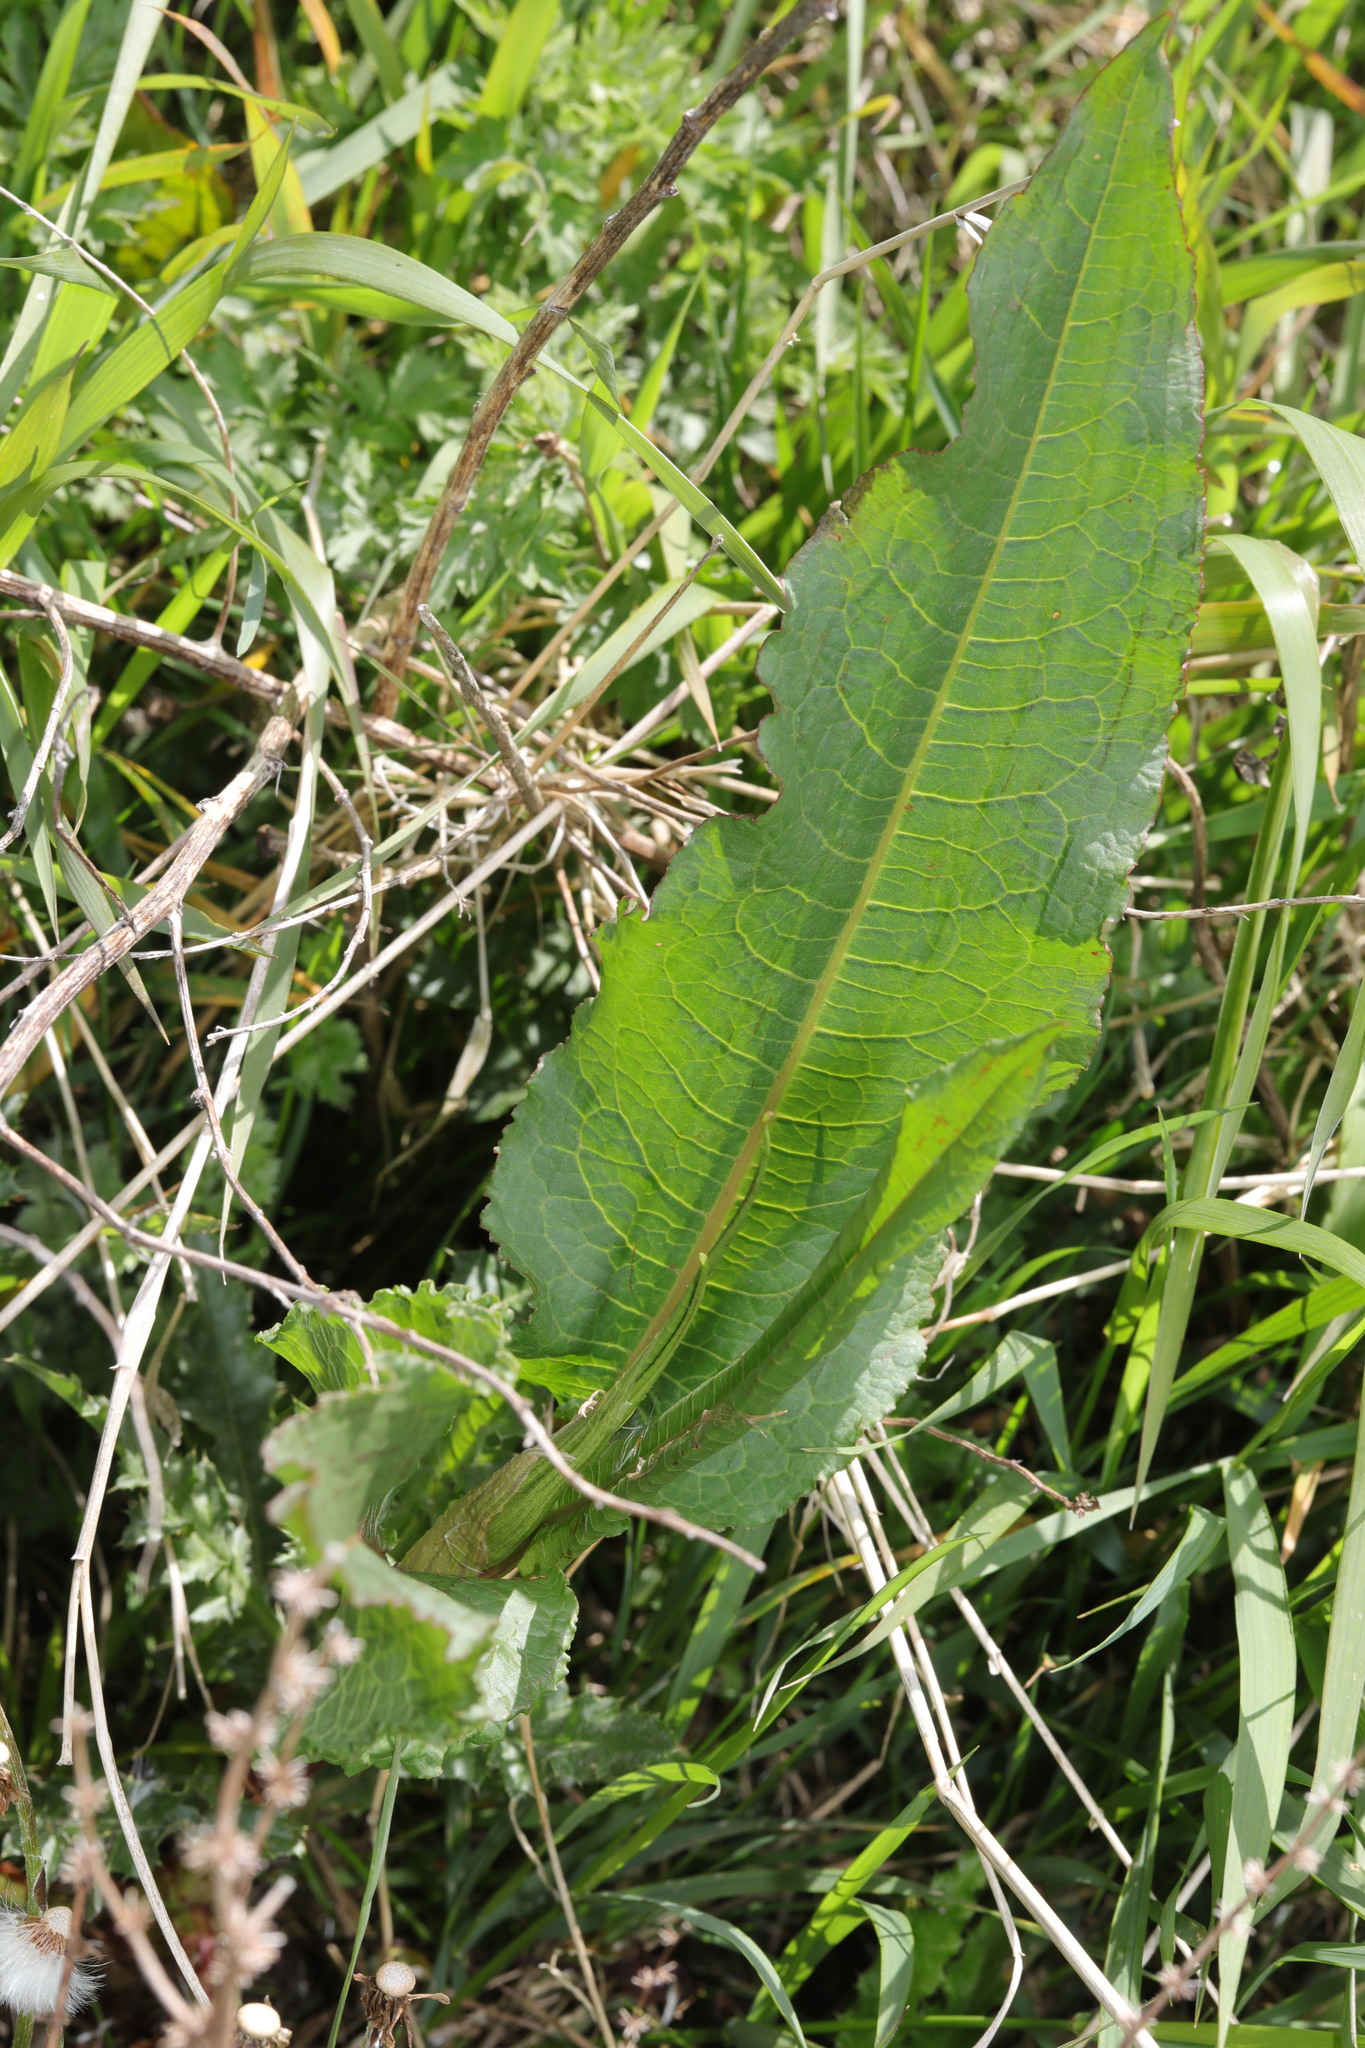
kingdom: Plantae
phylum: Tracheophyta
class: Magnoliopsida
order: Caryophyllales
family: Polygonaceae
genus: Rumex
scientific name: Rumex crispus
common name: Curled dock
